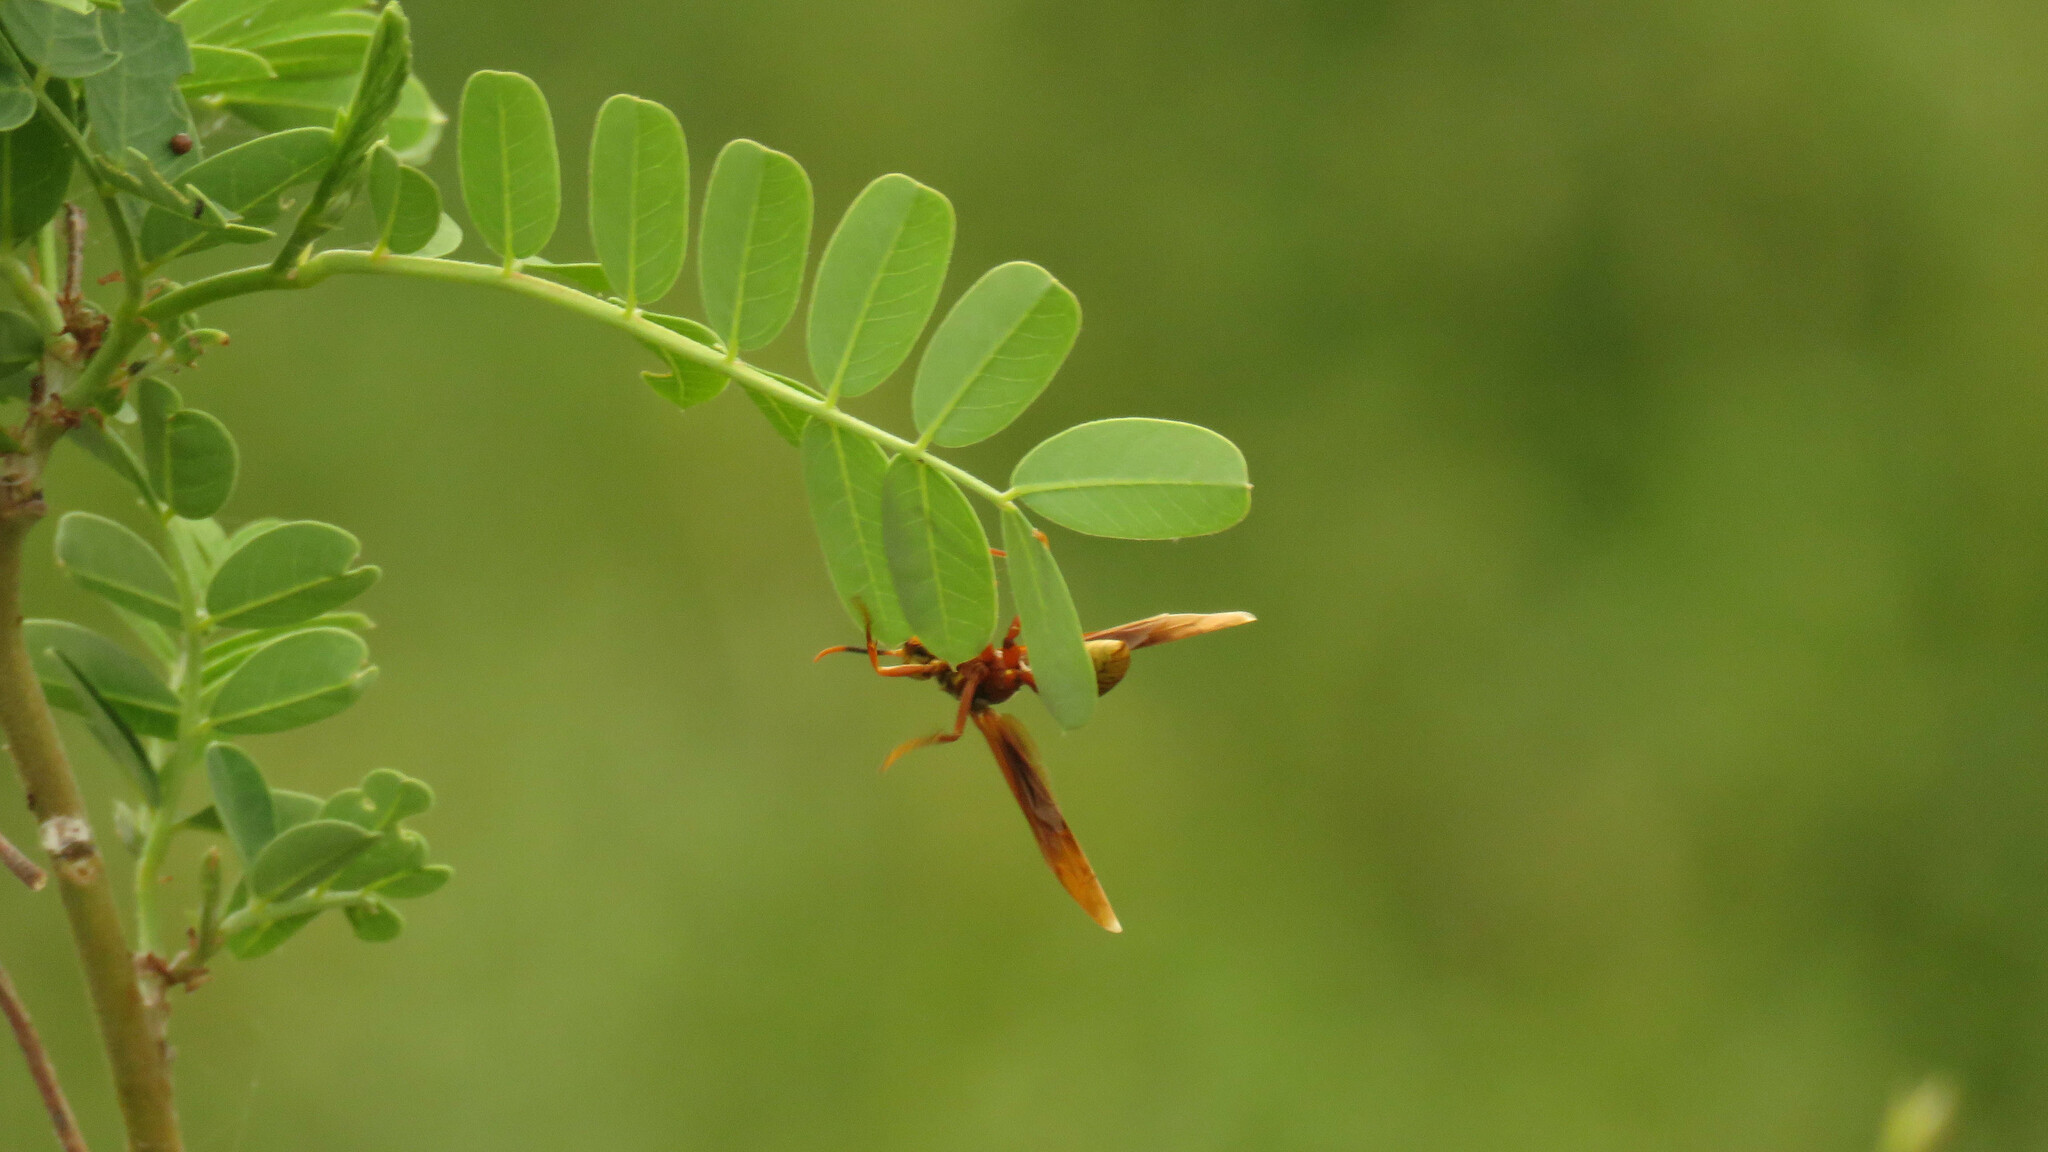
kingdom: Animalia
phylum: Arthropoda
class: Insecta
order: Hymenoptera
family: Eumenidae
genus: Polistes
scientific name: Polistes cavapyta
